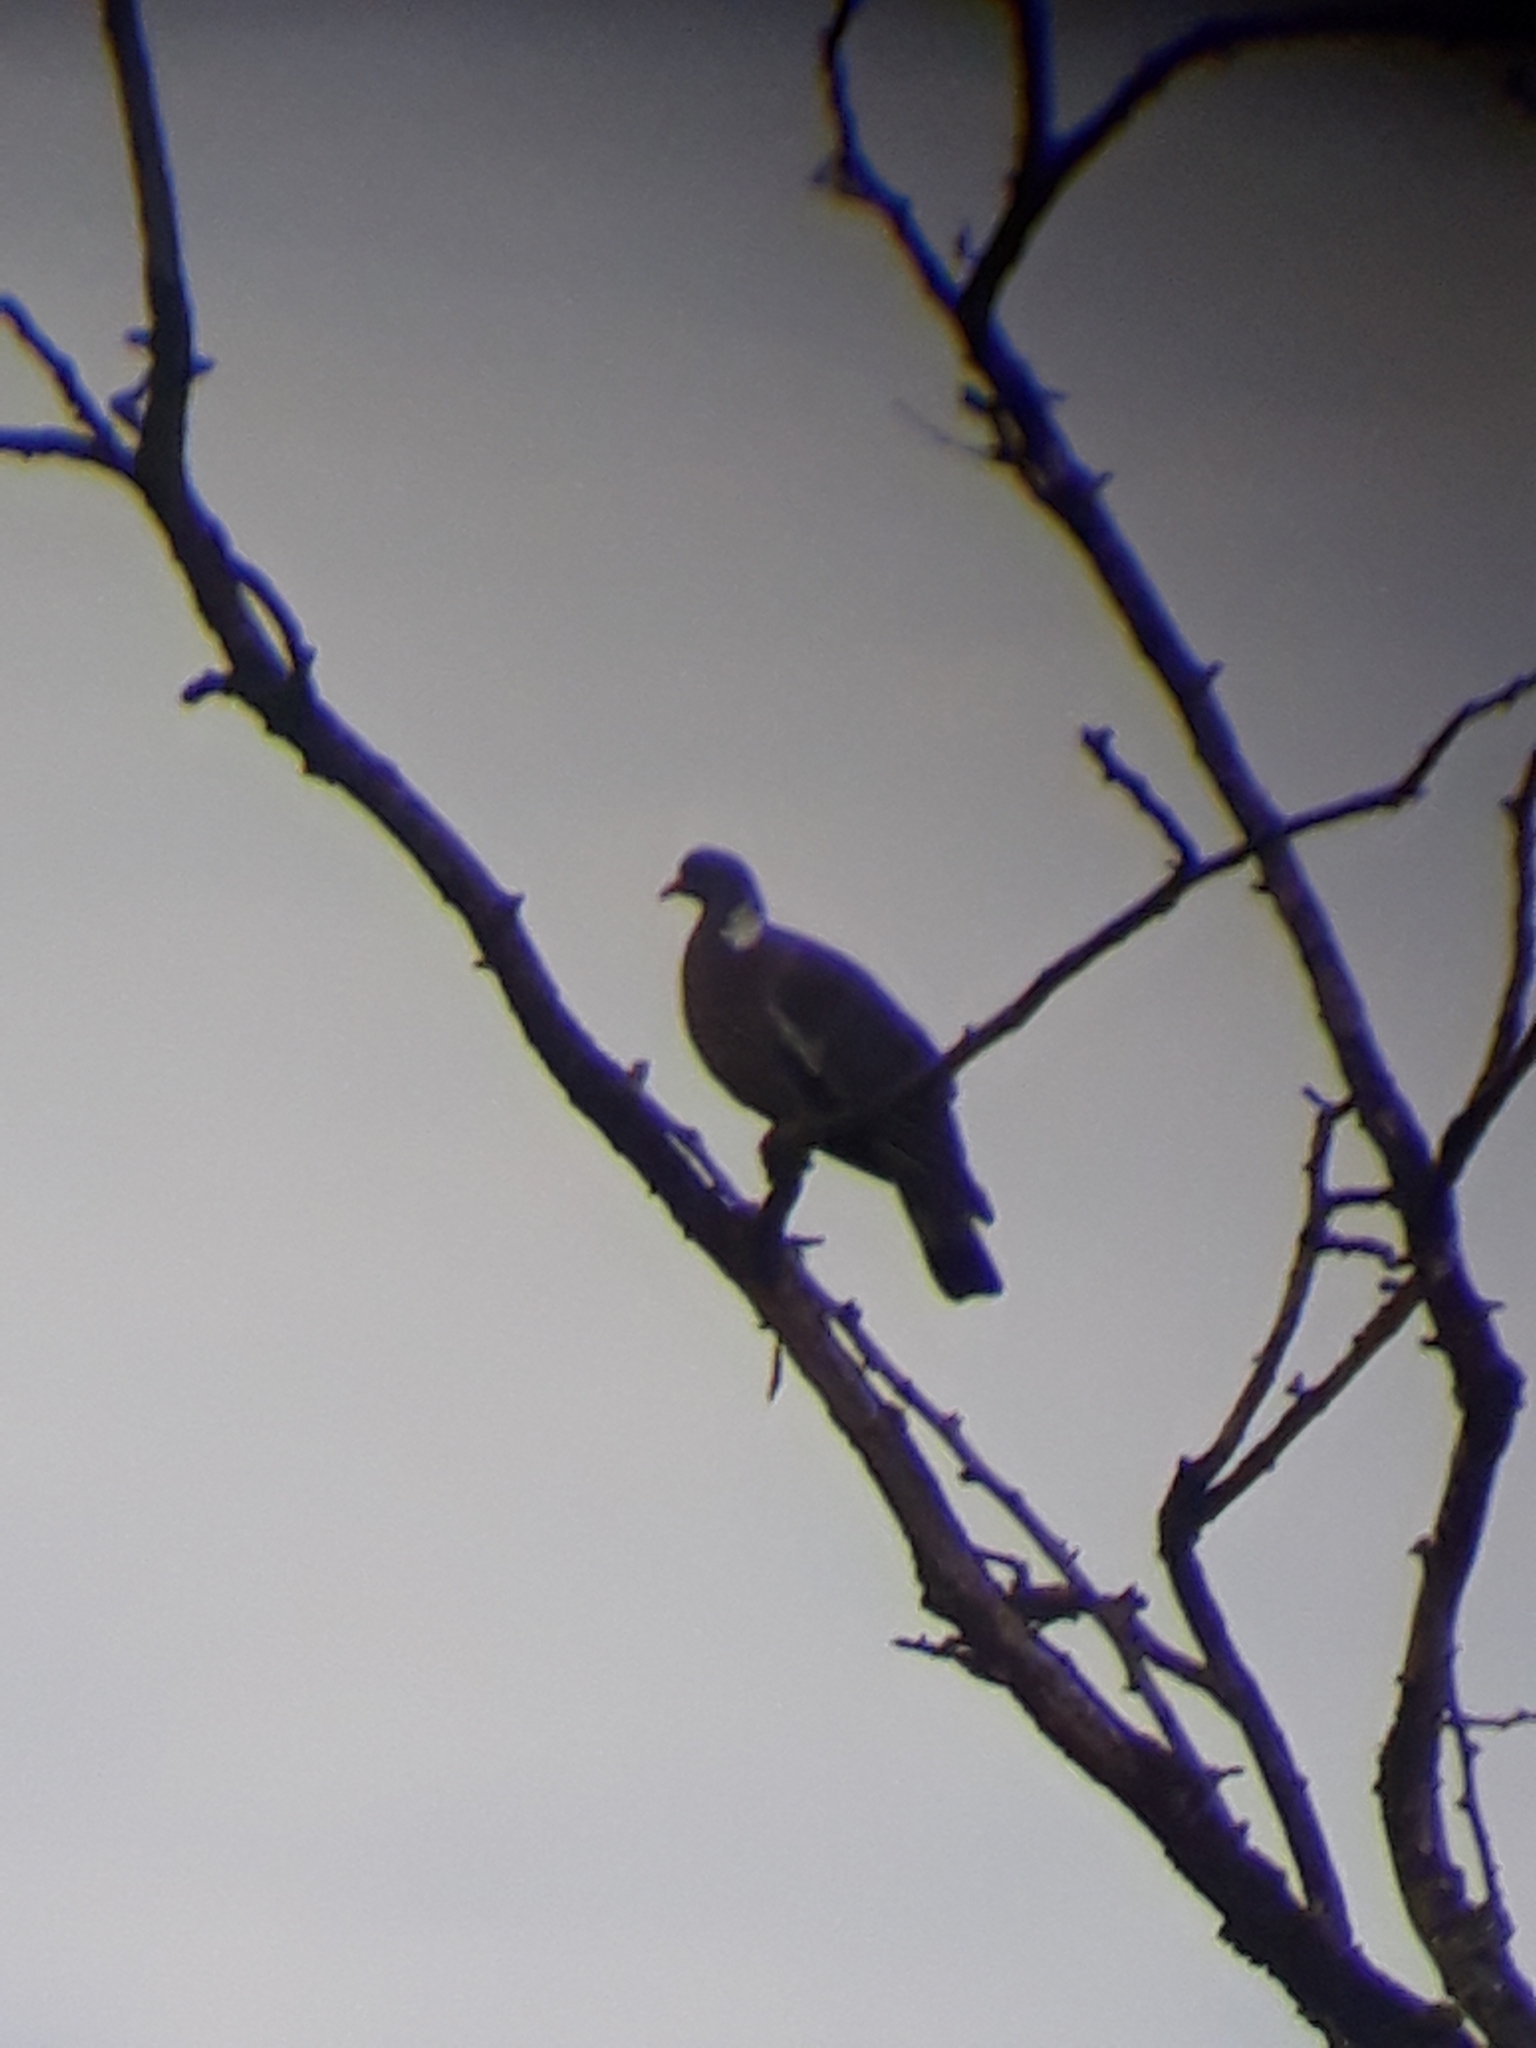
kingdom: Animalia
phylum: Chordata
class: Aves
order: Columbiformes
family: Columbidae
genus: Columba
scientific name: Columba palumbus
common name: Common wood pigeon
